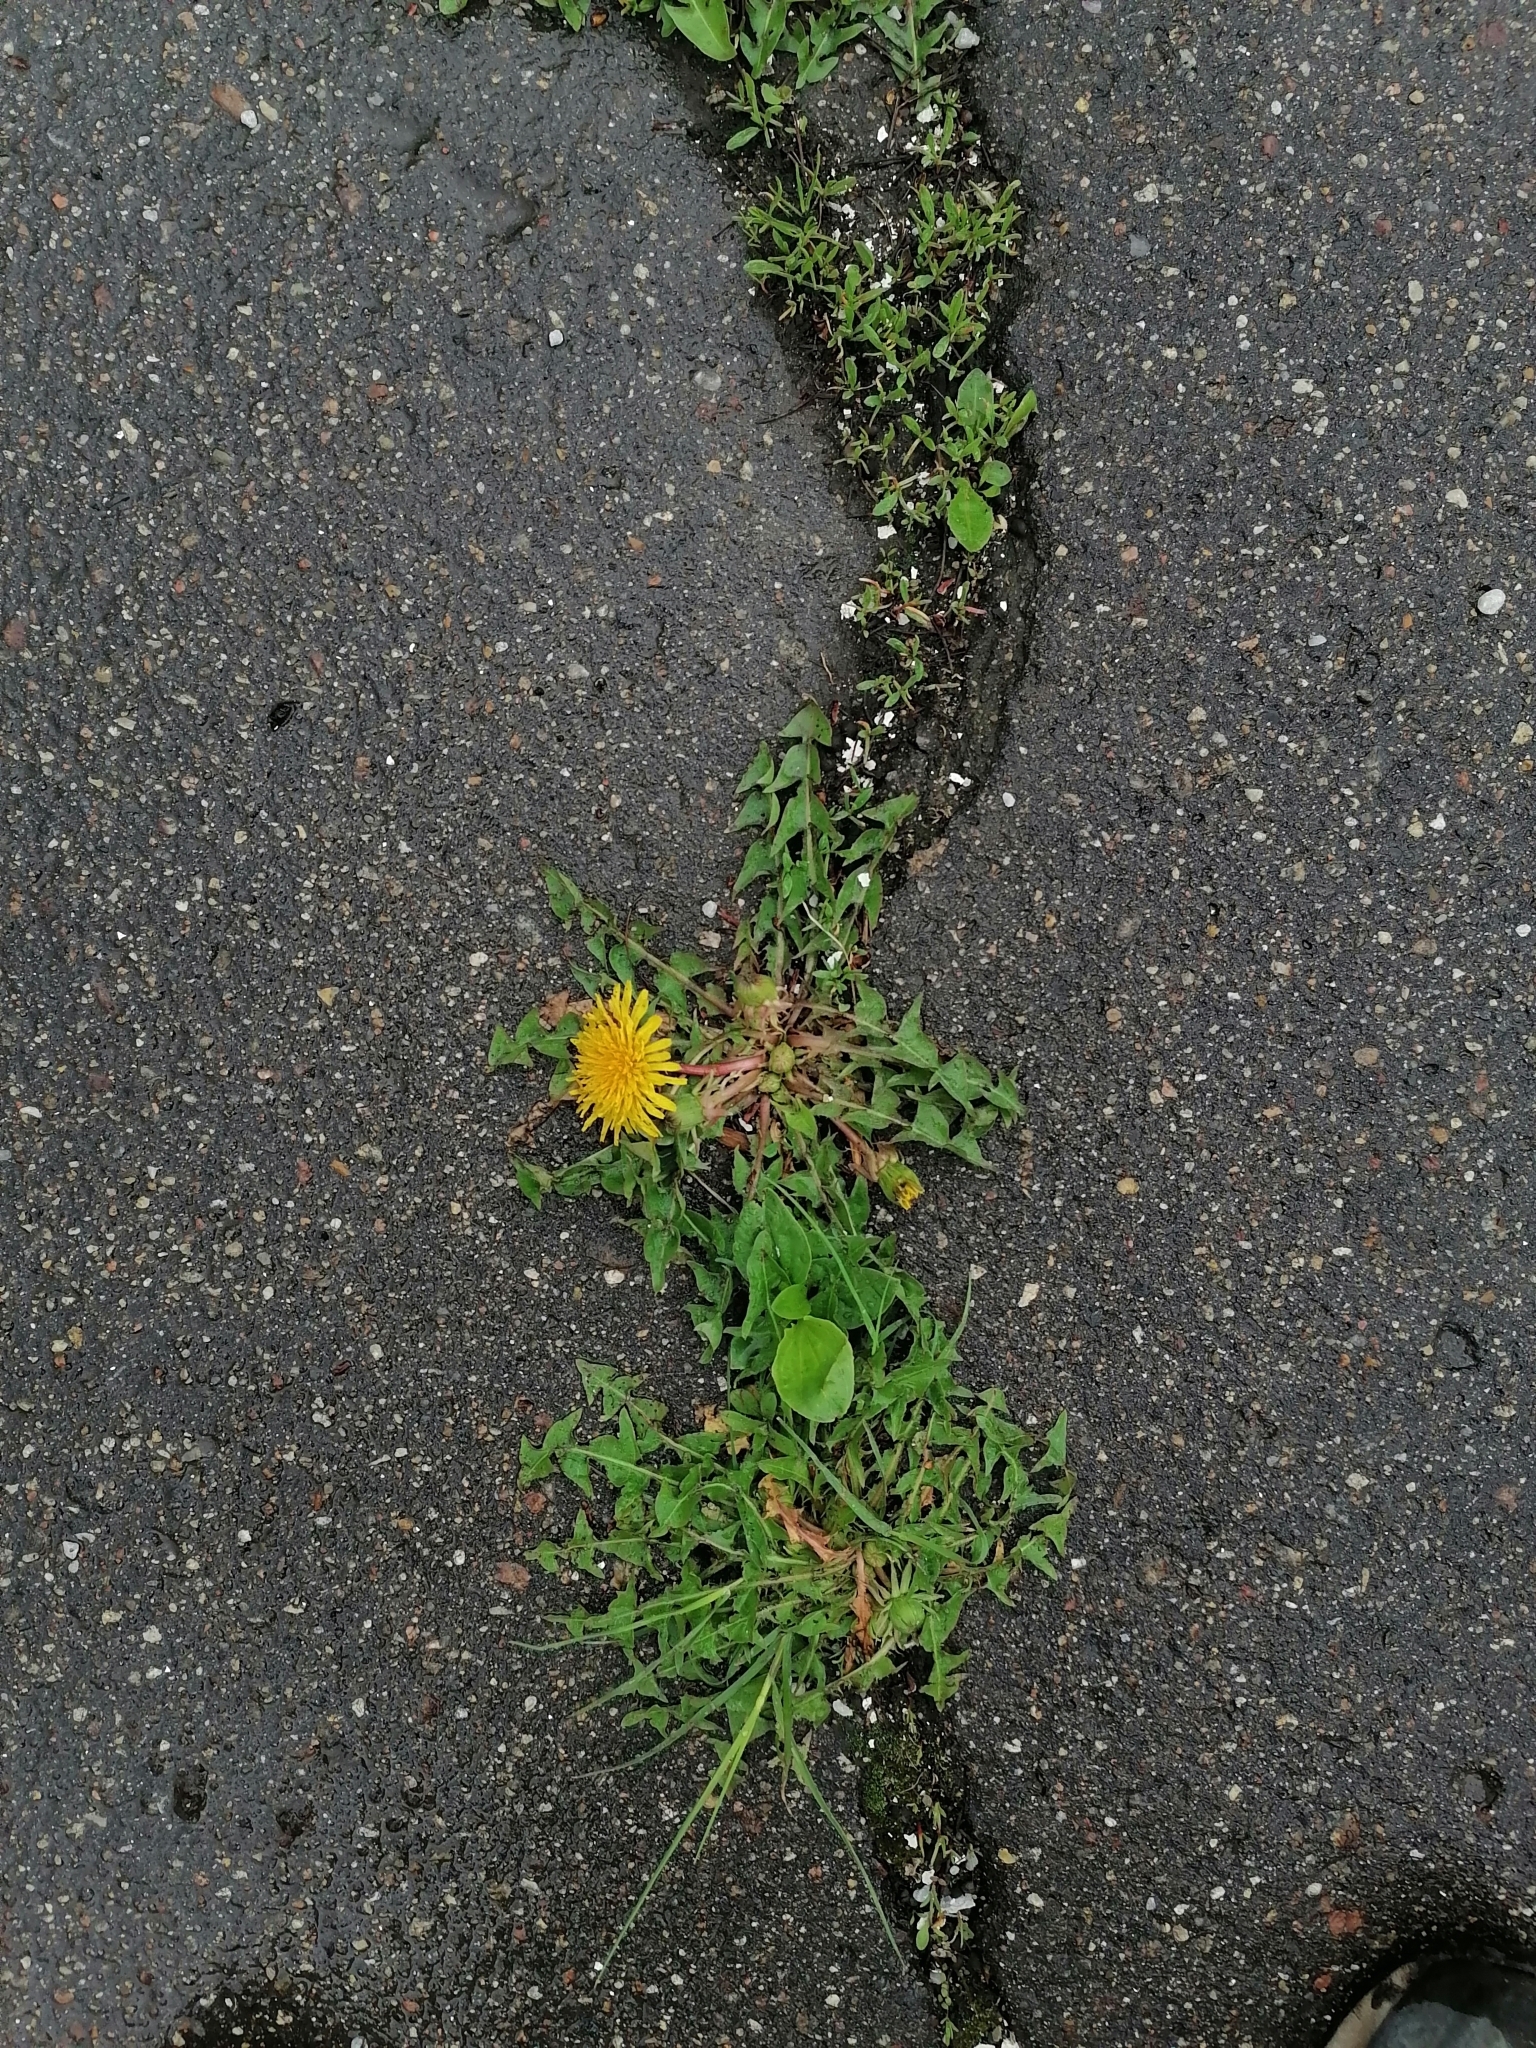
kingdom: Plantae
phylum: Tracheophyta
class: Magnoliopsida
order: Asterales
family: Asteraceae
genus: Taraxacum
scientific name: Taraxacum officinale
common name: Common dandelion
